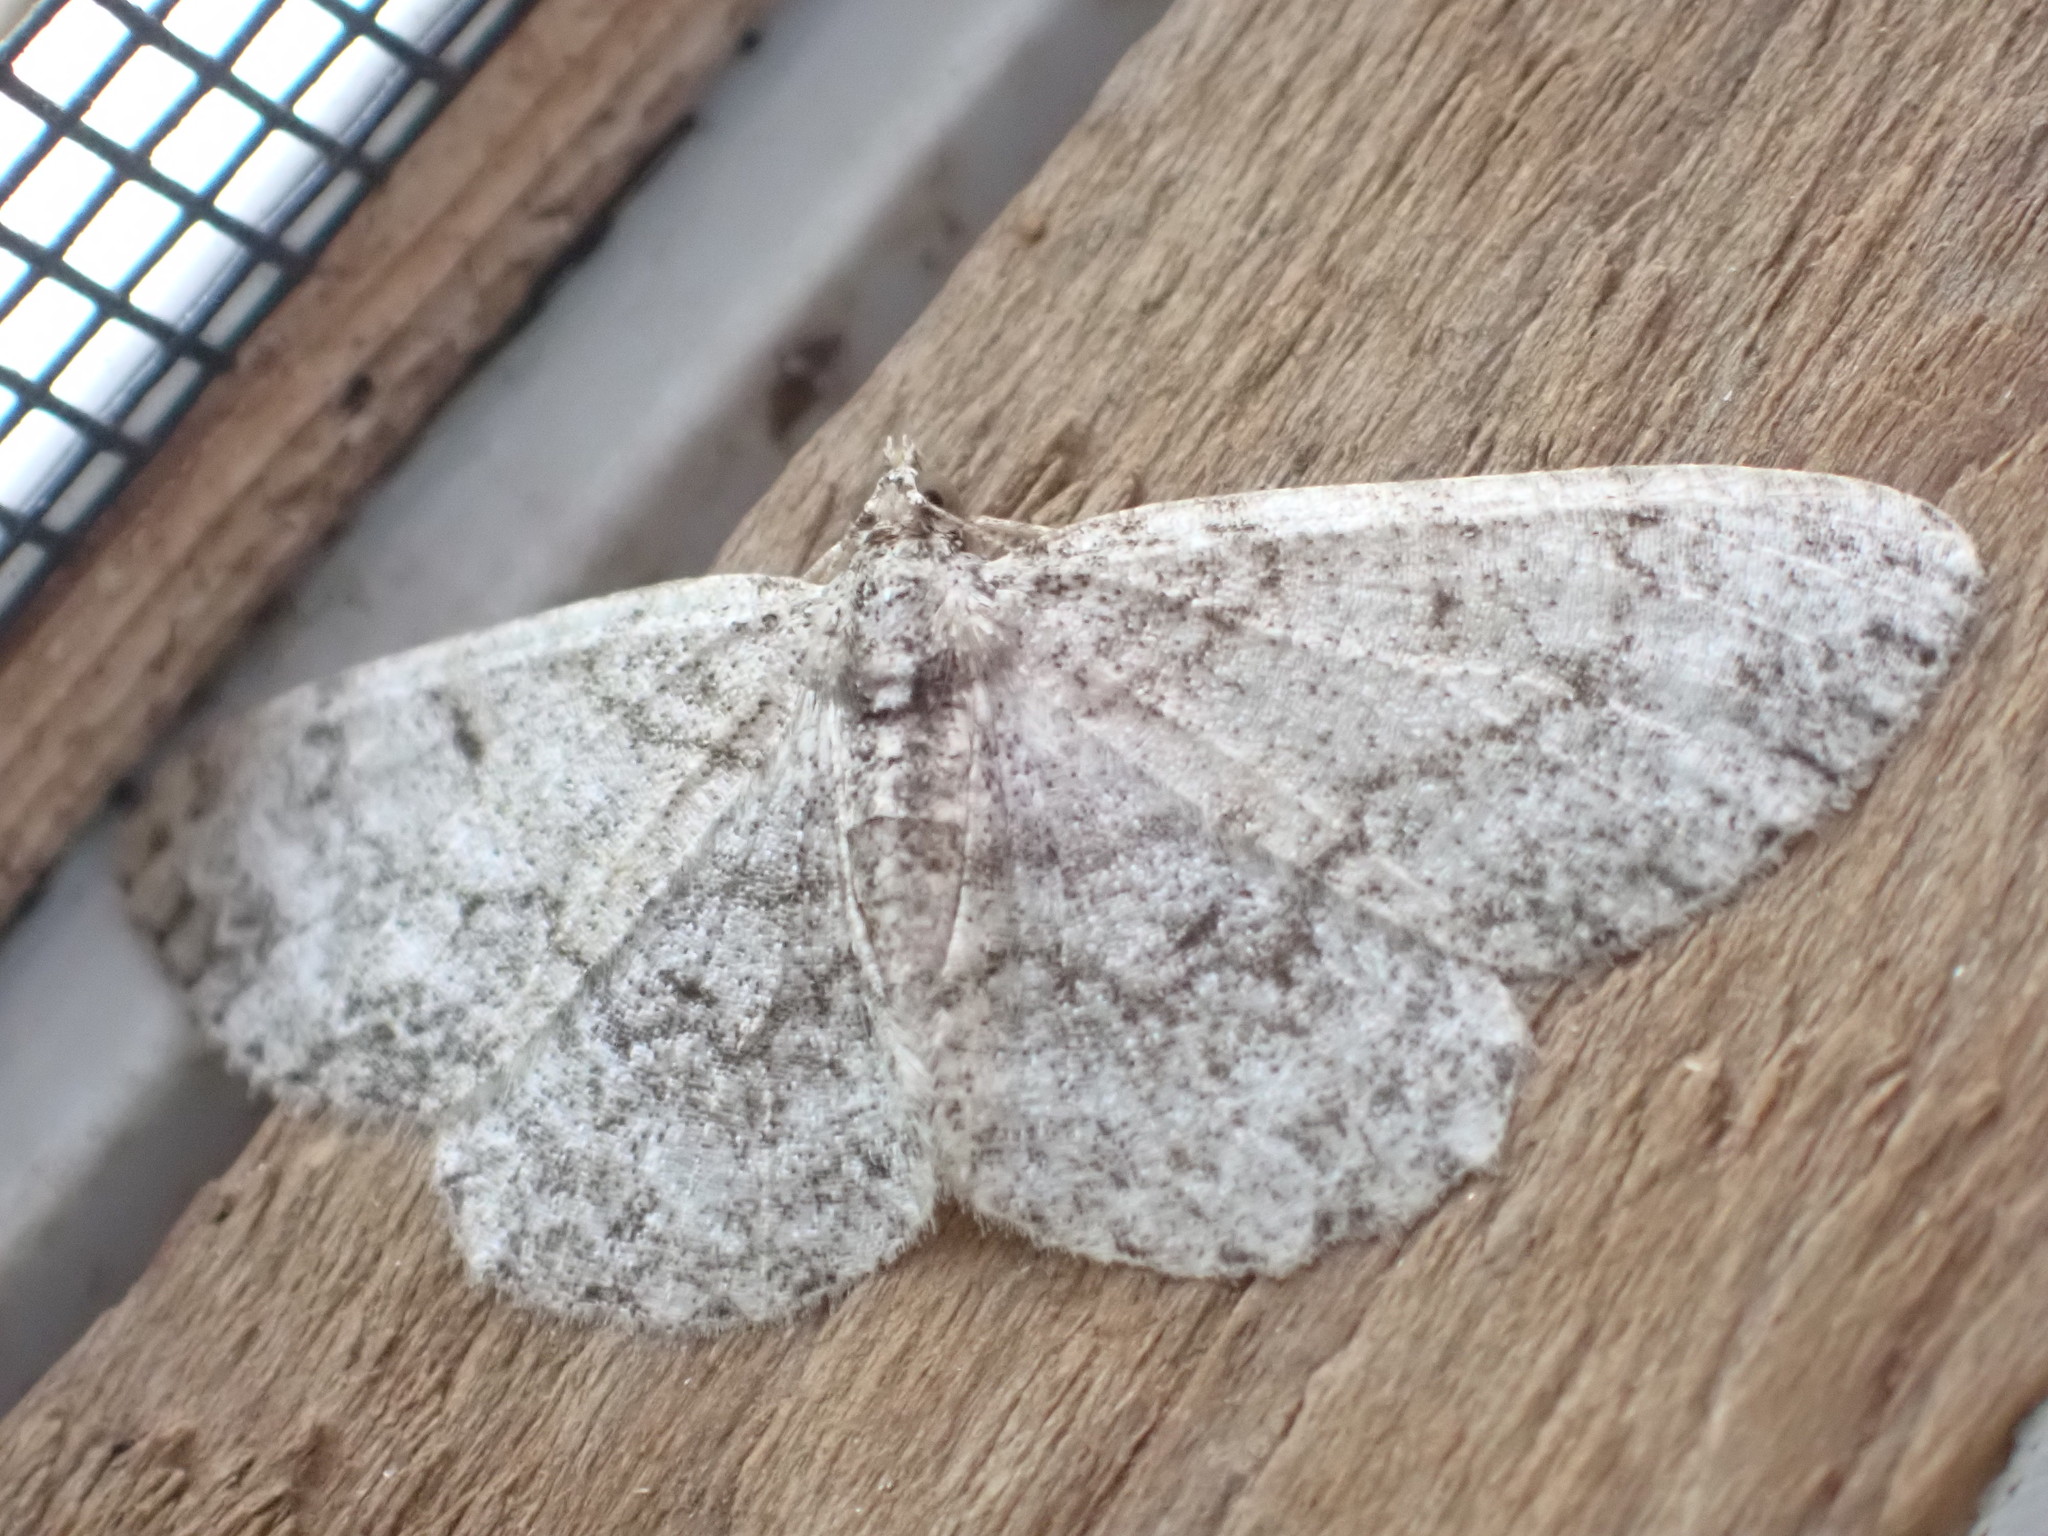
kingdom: Animalia
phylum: Arthropoda
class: Insecta
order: Lepidoptera
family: Geometridae
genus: Protoboarmia
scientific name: Protoboarmia porcelaria
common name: Porcelain gray
